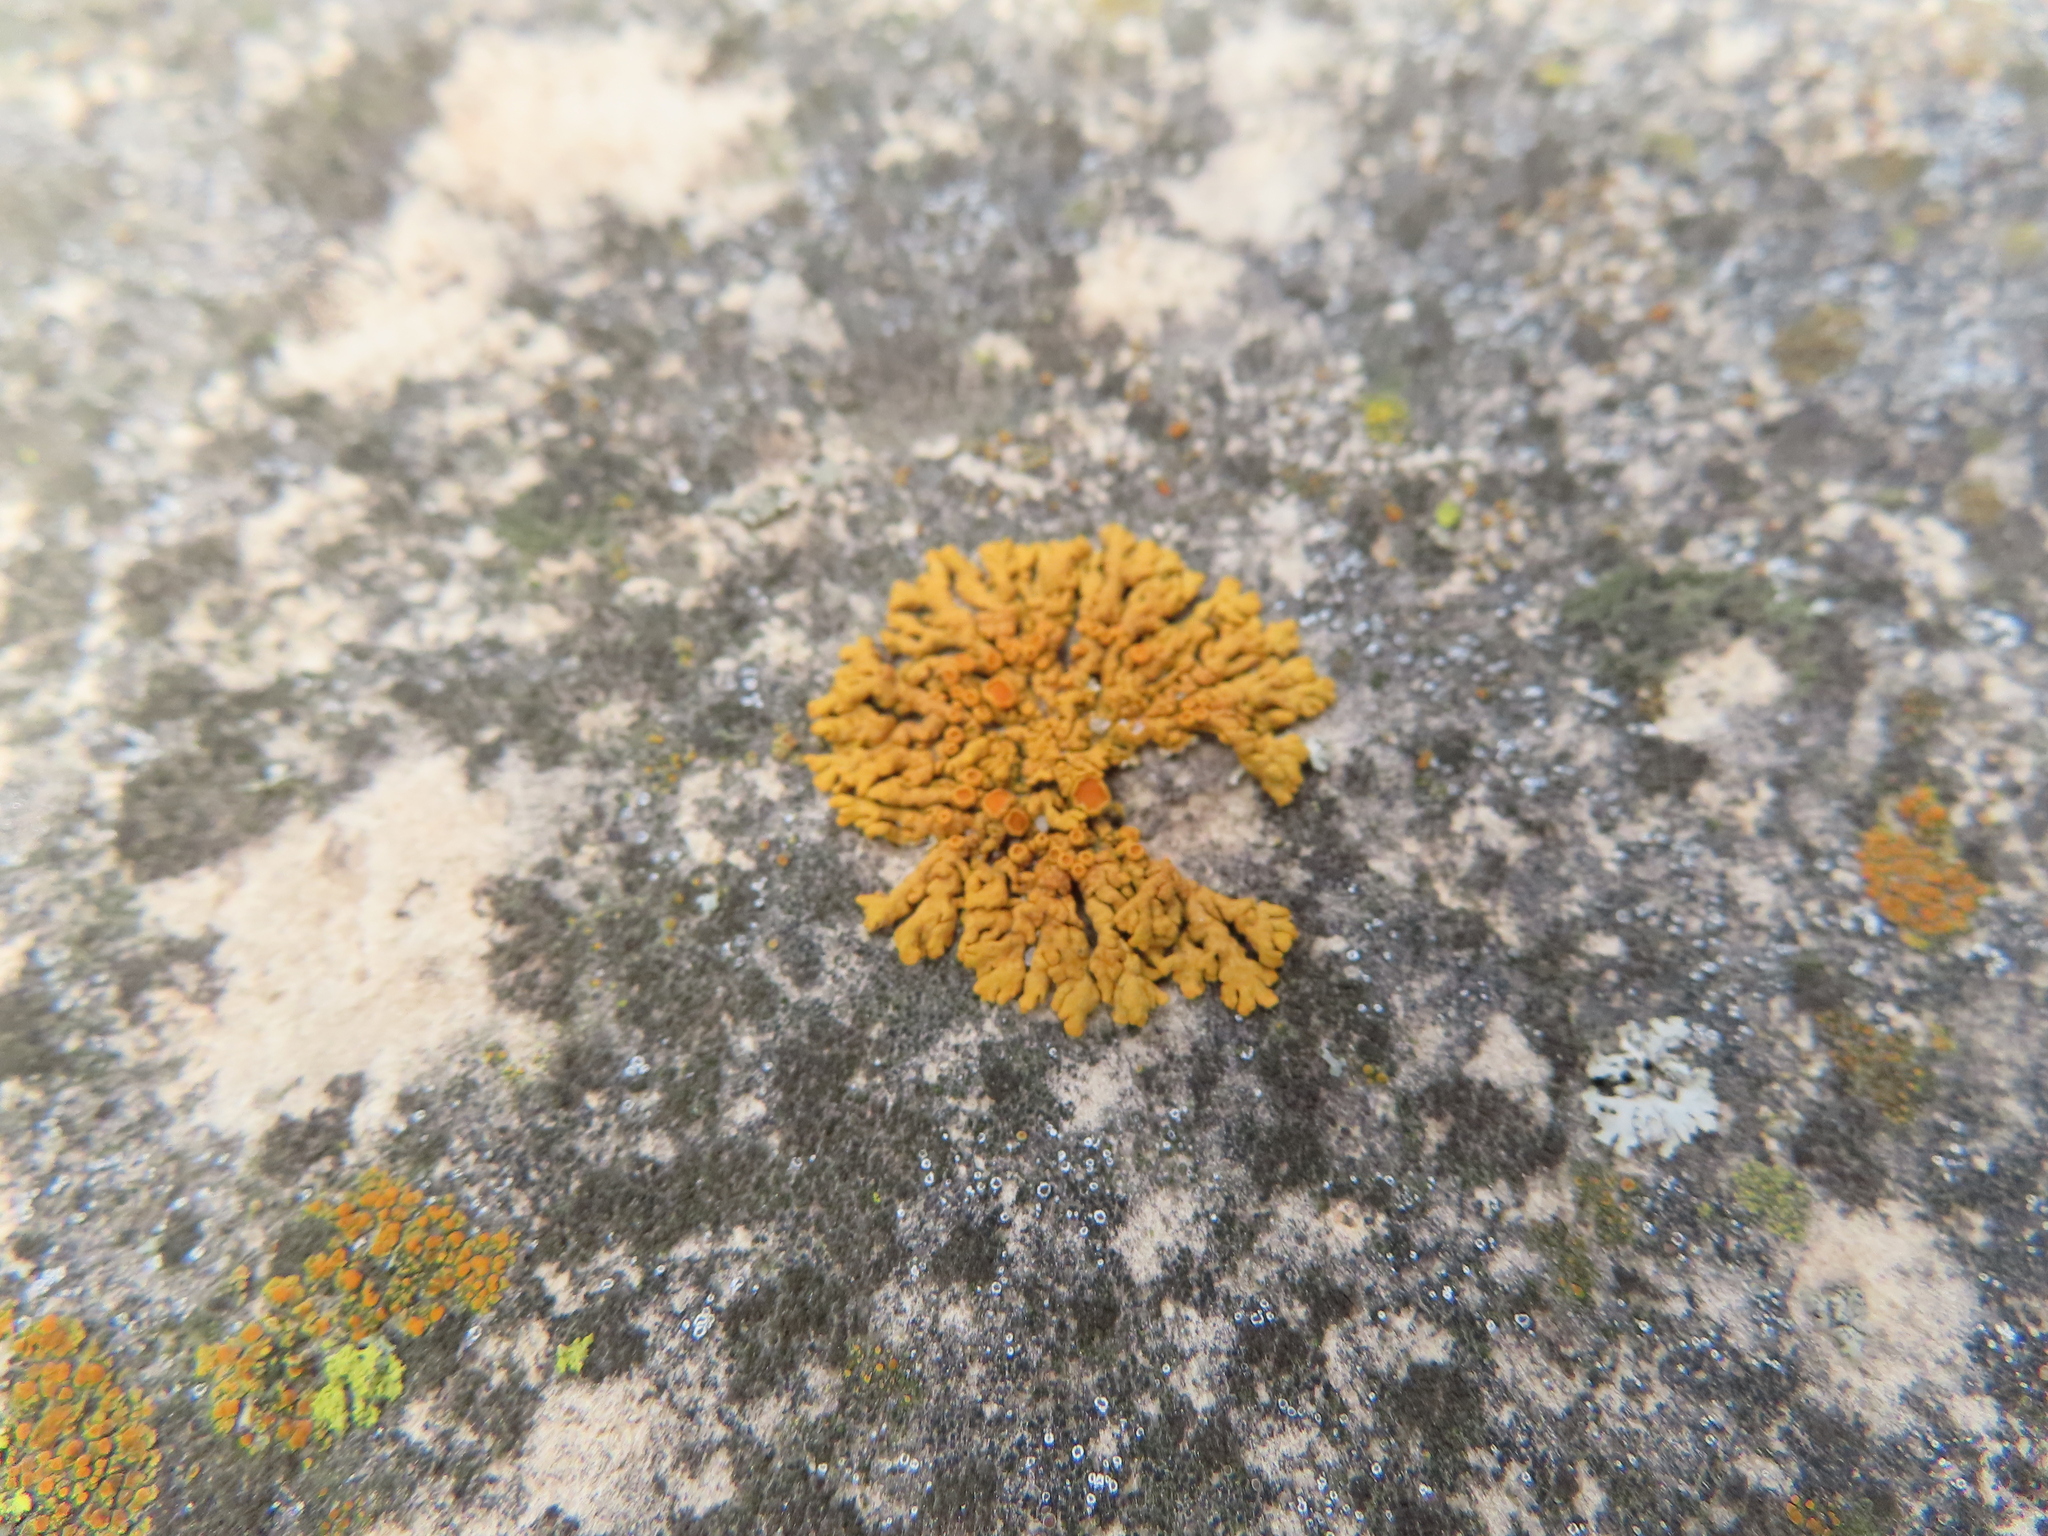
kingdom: Fungi
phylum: Ascomycota
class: Lecanoromycetes
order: Teloschistales
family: Teloschistaceae
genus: Xanthoria
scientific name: Xanthoria elegans
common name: Elegant sunburst lichen
